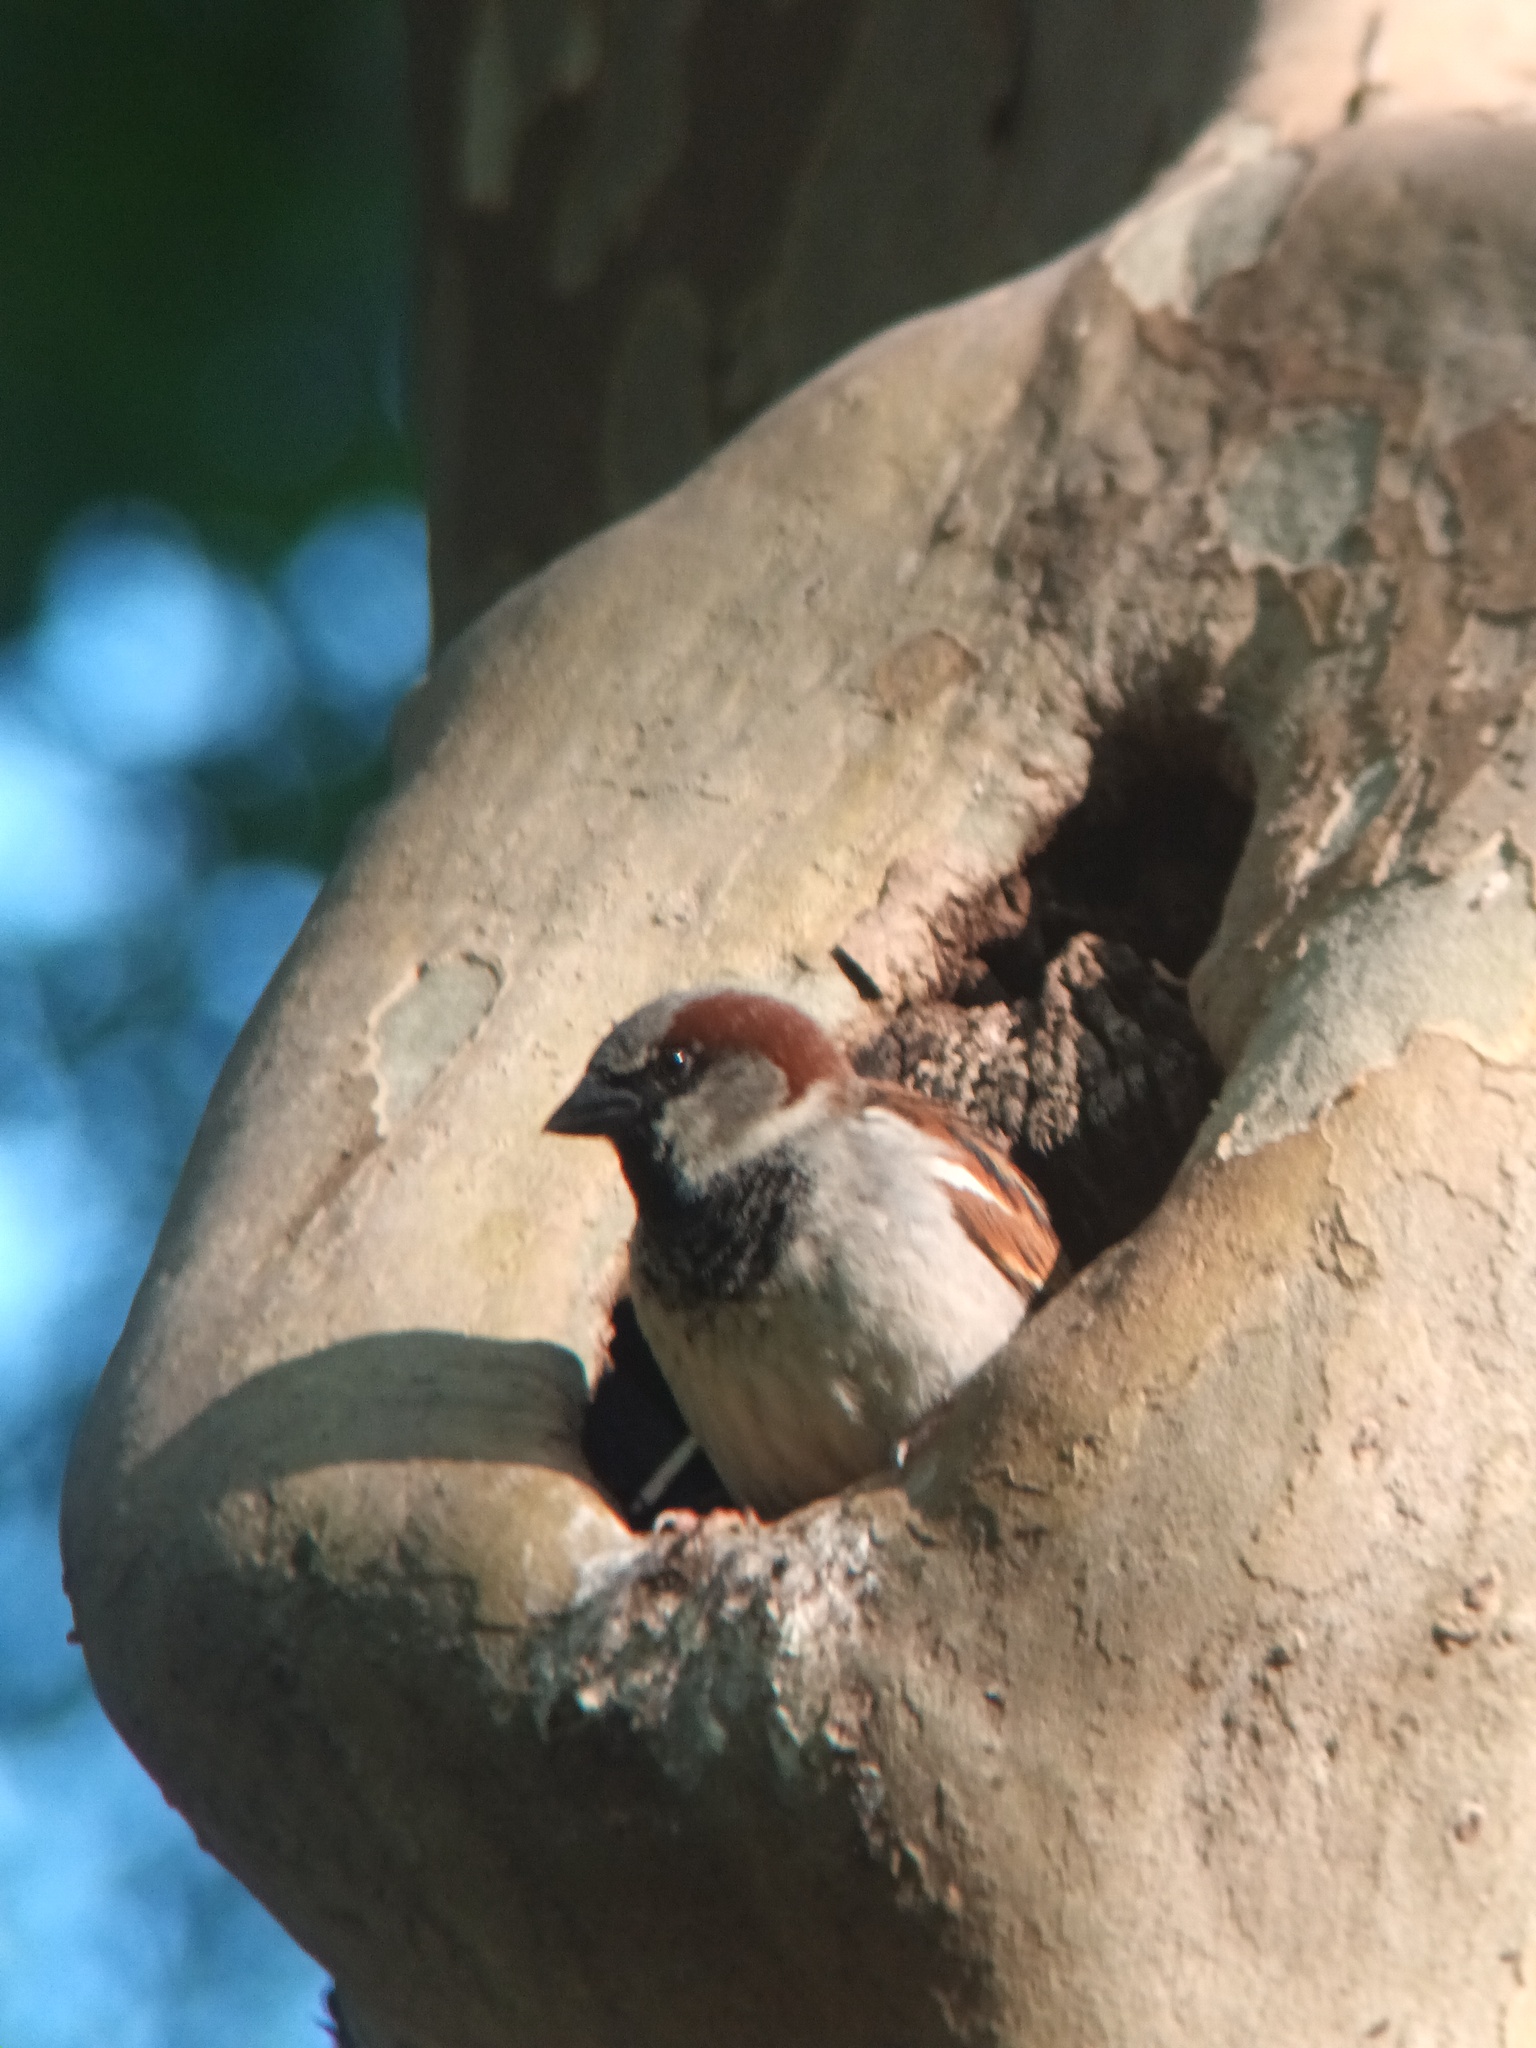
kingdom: Animalia
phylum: Chordata
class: Aves
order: Passeriformes
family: Passeridae
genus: Passer
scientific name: Passer domesticus
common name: House sparrow
